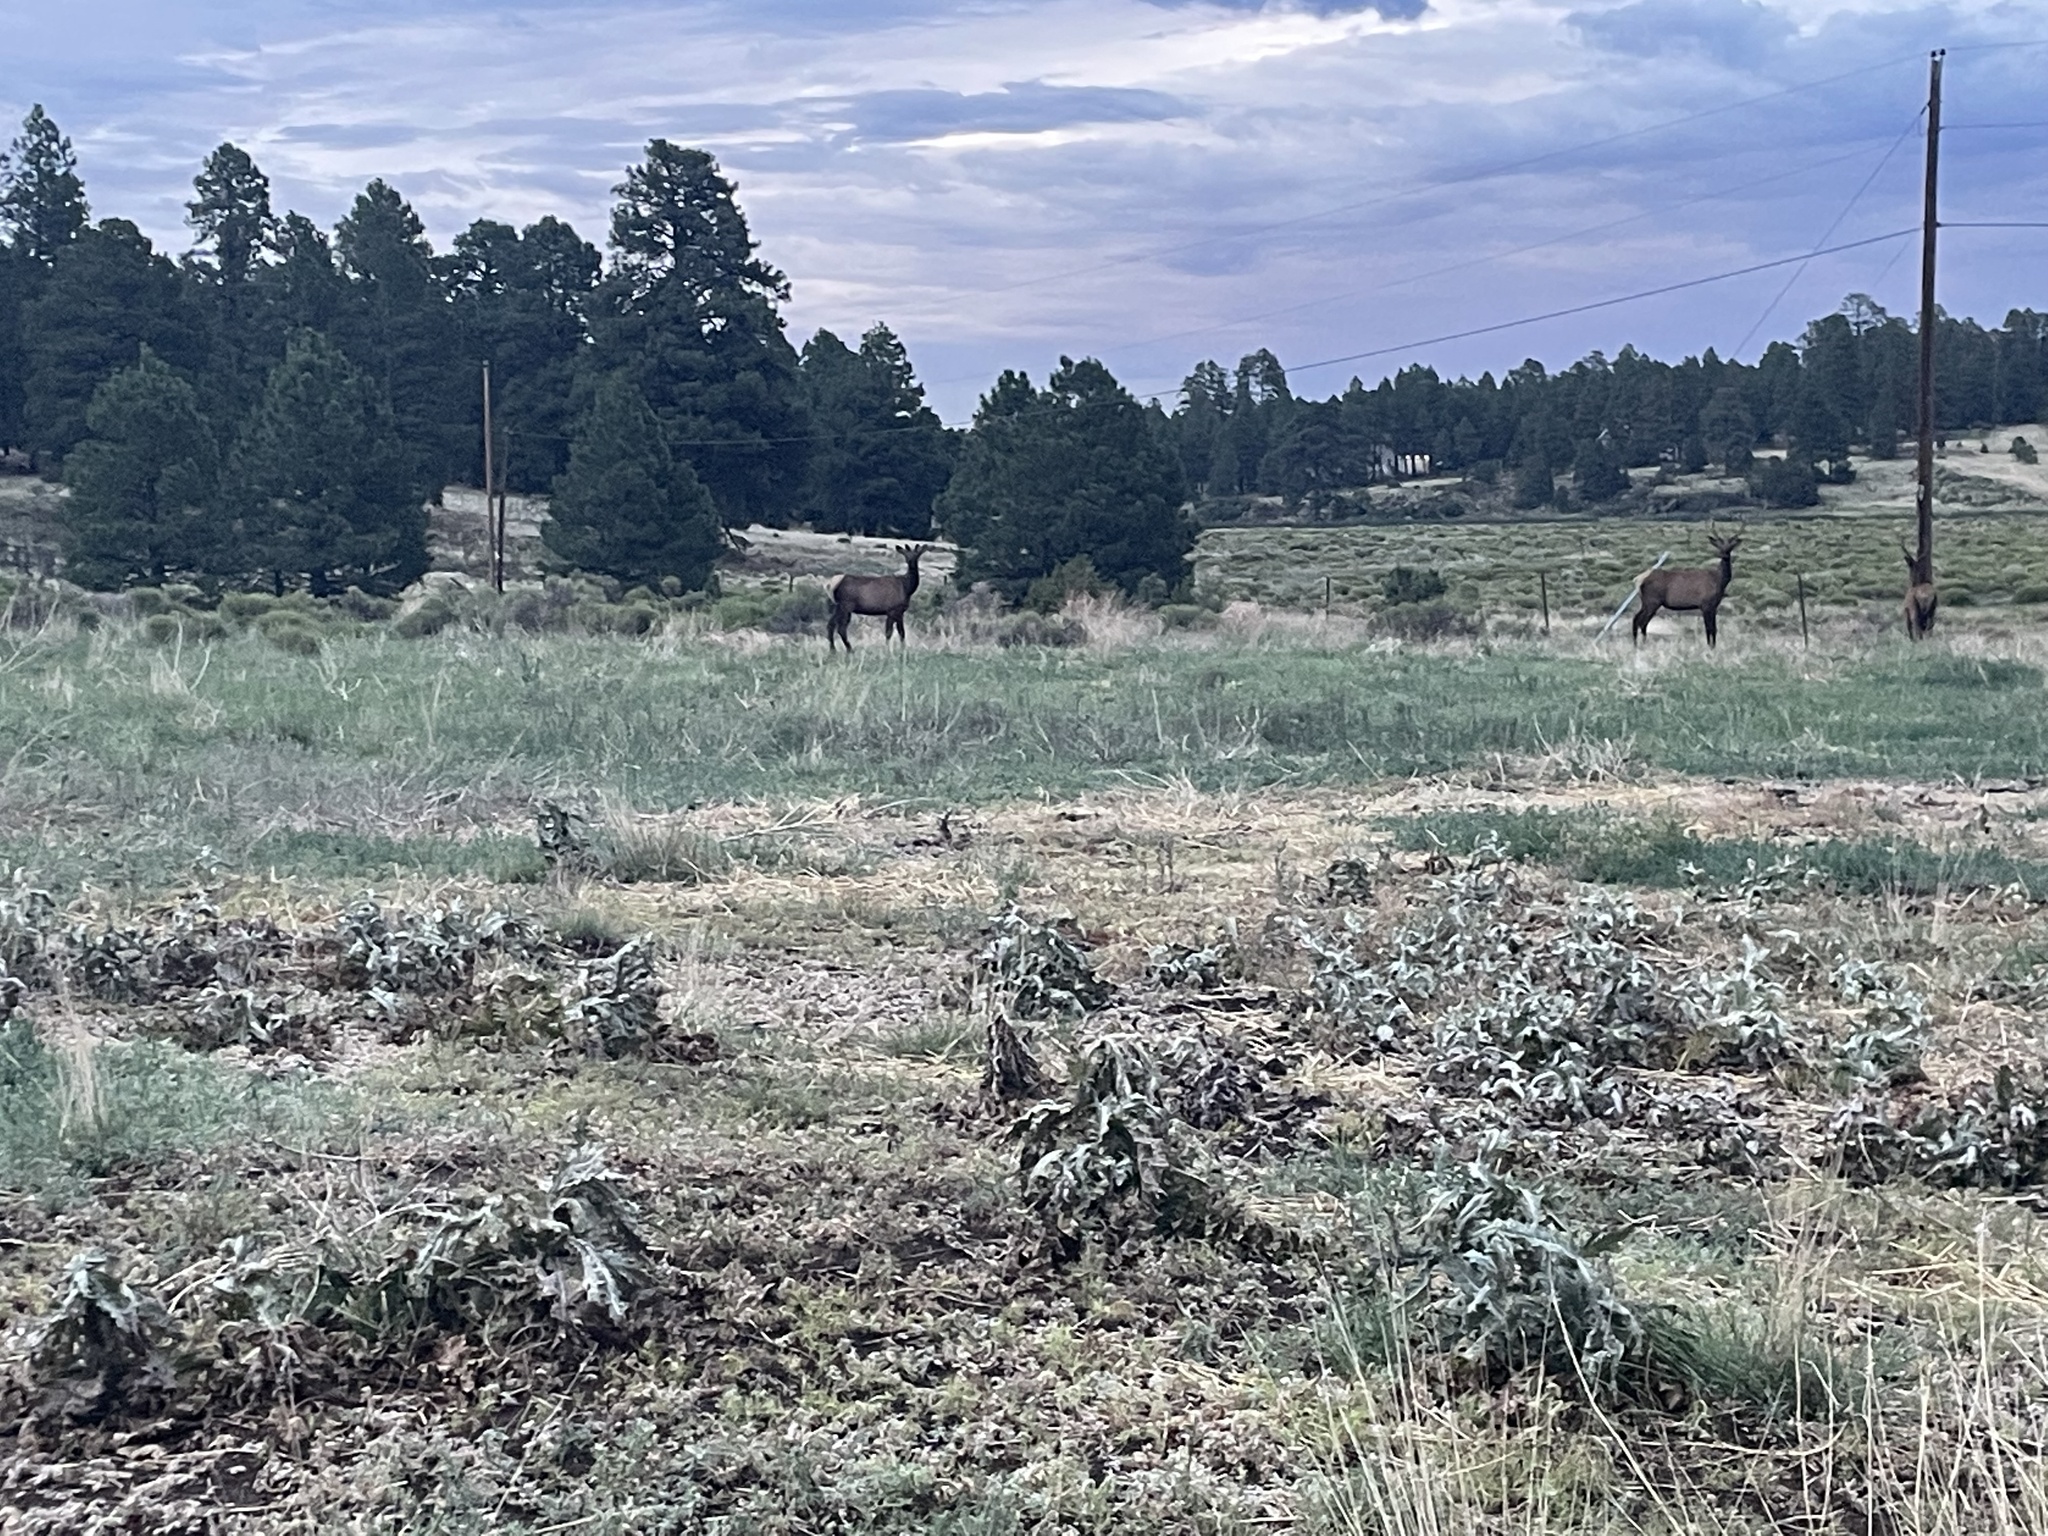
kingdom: Animalia
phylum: Chordata
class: Mammalia
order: Artiodactyla
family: Cervidae
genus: Cervus
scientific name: Cervus elaphus
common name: Red deer
